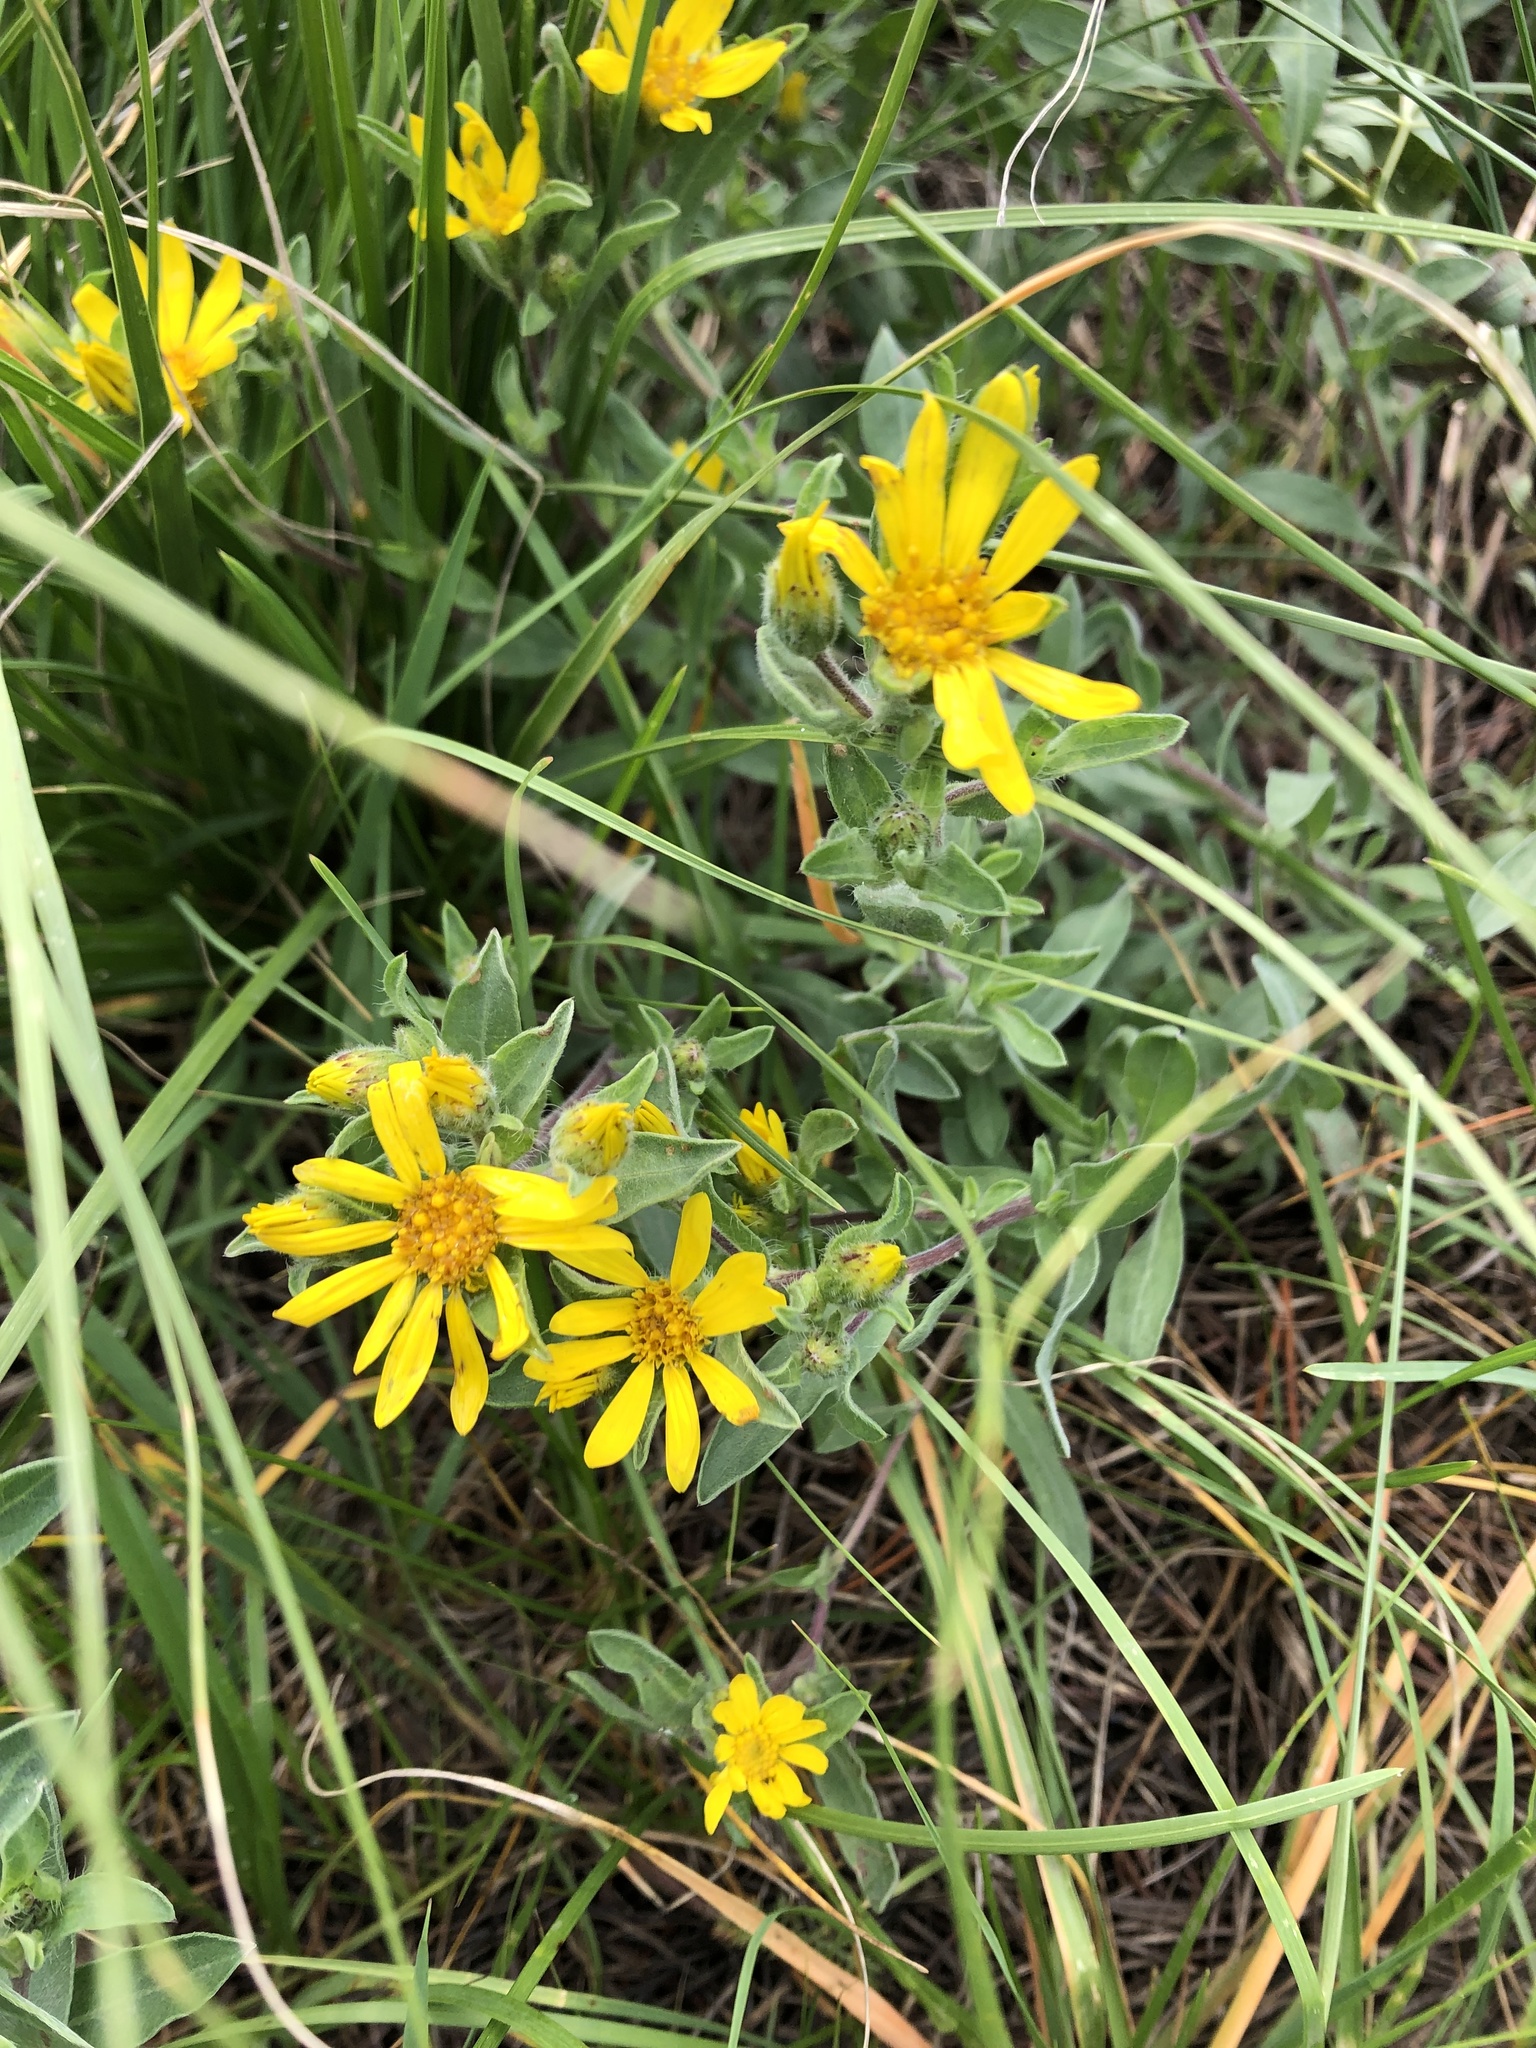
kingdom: Plantae
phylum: Tracheophyta
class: Magnoliopsida
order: Asterales
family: Asteraceae
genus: Heterotheca
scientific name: Heterotheca hirsutissima
